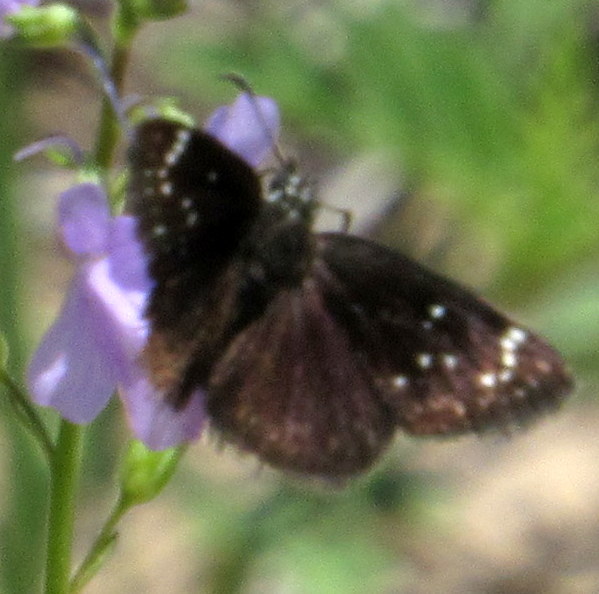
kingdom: Animalia
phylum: Arthropoda
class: Insecta
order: Lepidoptera
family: Hesperiidae
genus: Pholisora
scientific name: Pholisora catullus
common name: Common sootywing
